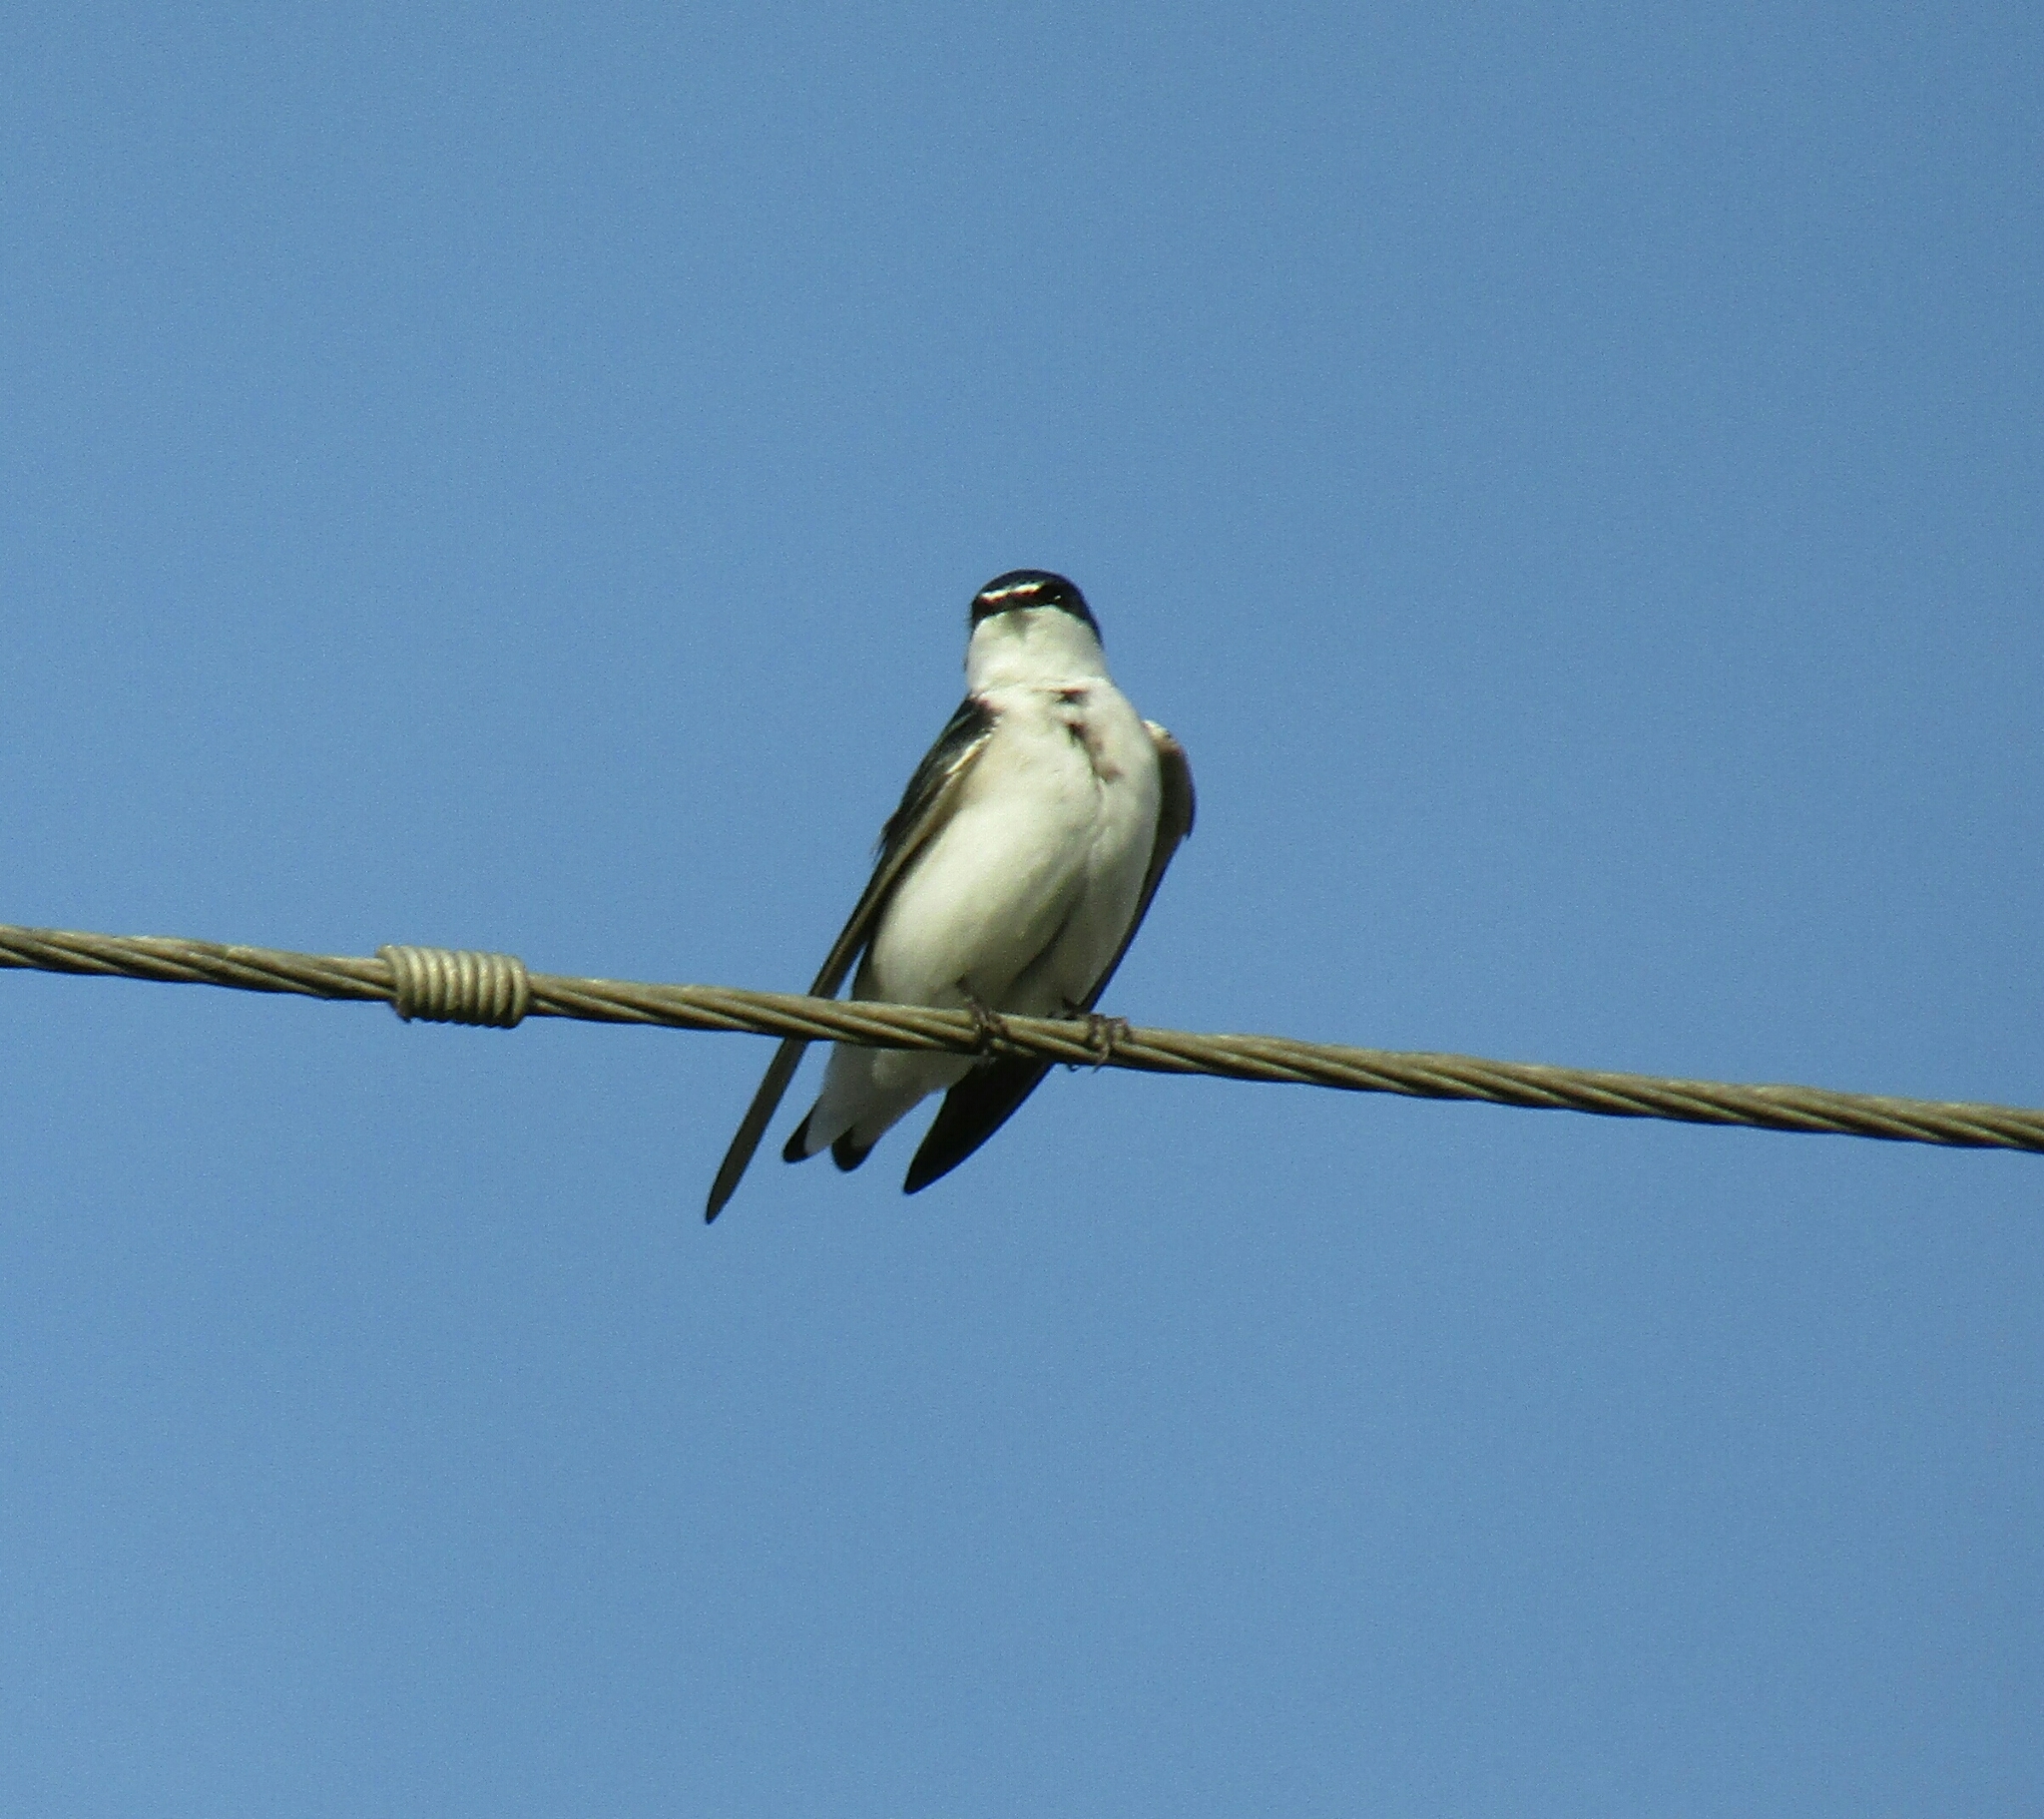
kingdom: Animalia
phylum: Chordata
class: Aves
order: Passeriformes
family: Hirundinidae
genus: Tachycineta
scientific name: Tachycineta leucorrhoa
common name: White-rumped swallow
